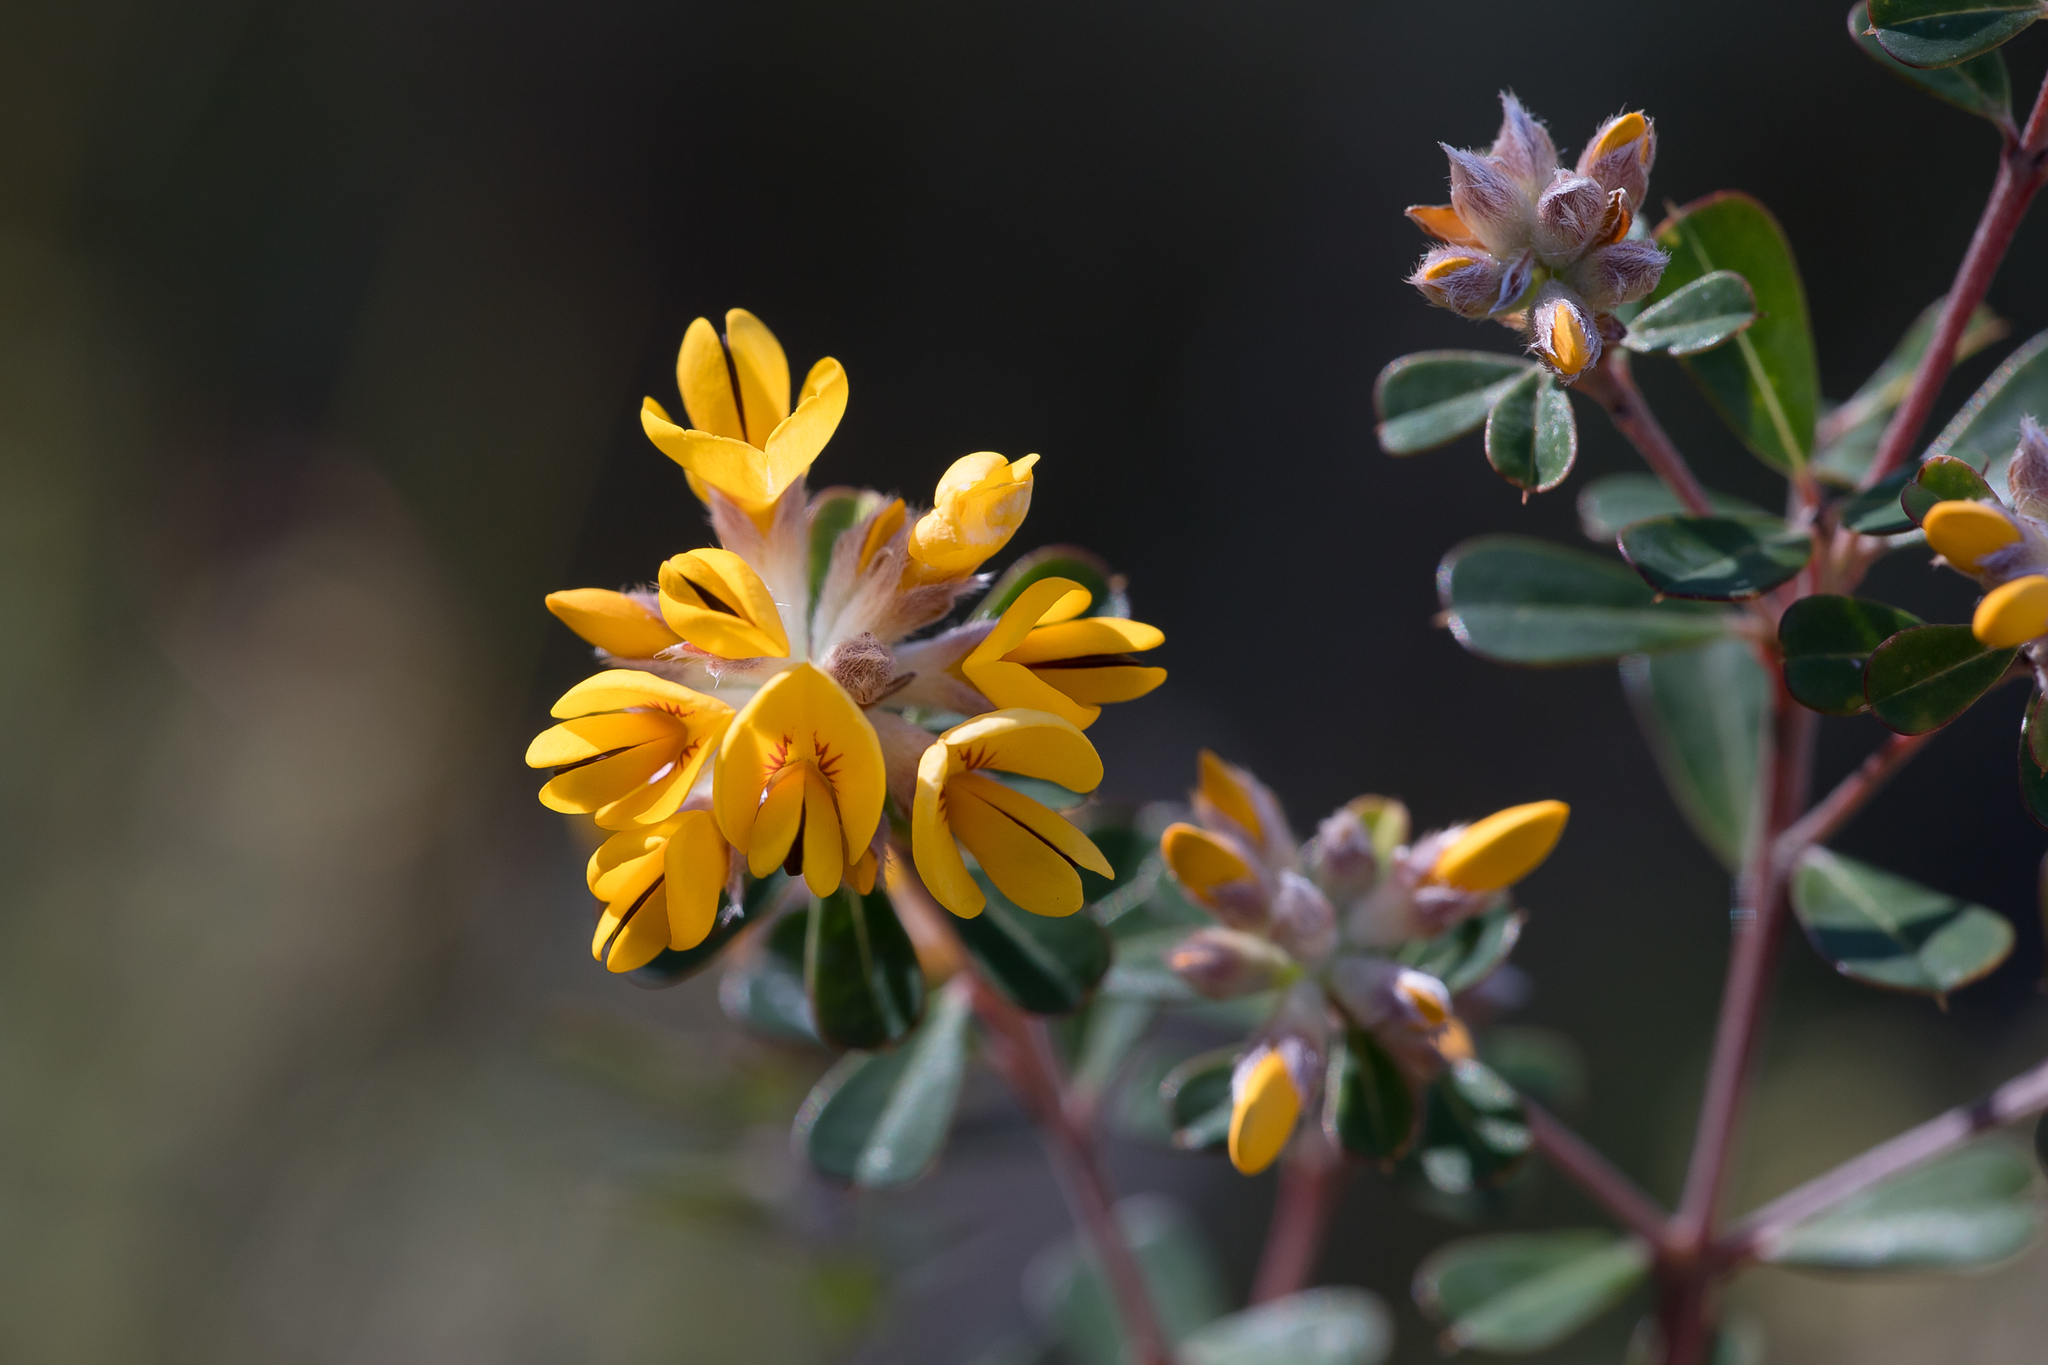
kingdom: Plantae
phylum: Tracheophyta
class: Magnoliopsida
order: Fabales
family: Fabaceae
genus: Pultenaea
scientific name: Pultenaea daphnoides
